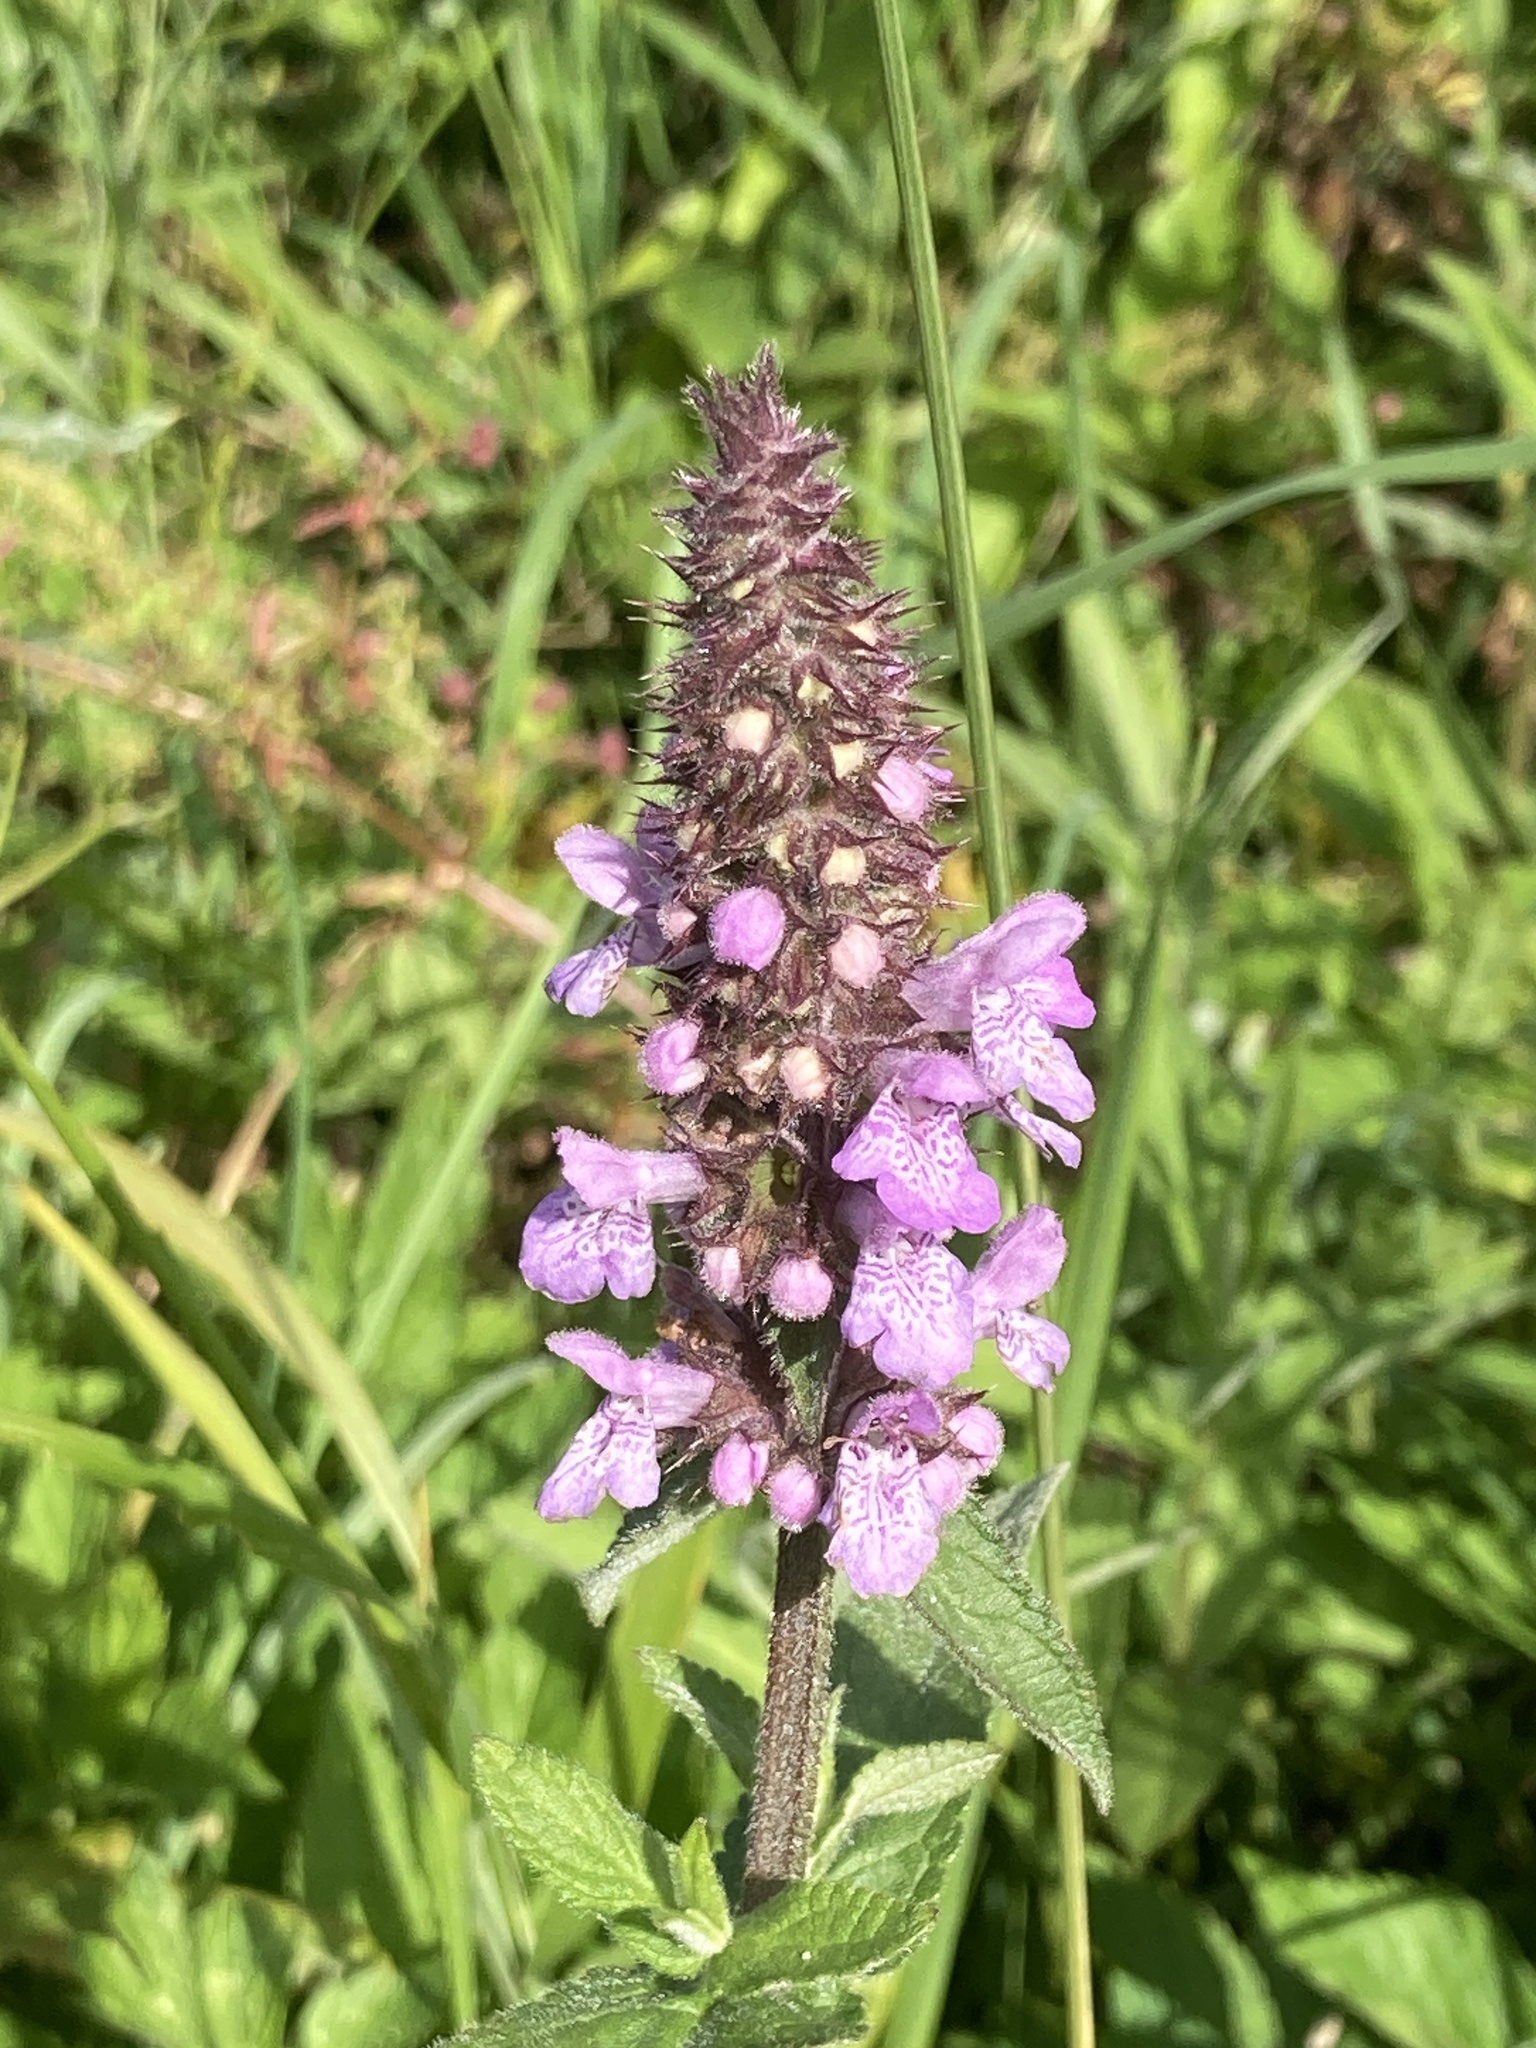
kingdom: Plantae
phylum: Tracheophyta
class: Magnoliopsida
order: Lamiales
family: Lamiaceae
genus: Stachys
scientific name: Stachys palustris
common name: Marsh woundwort
